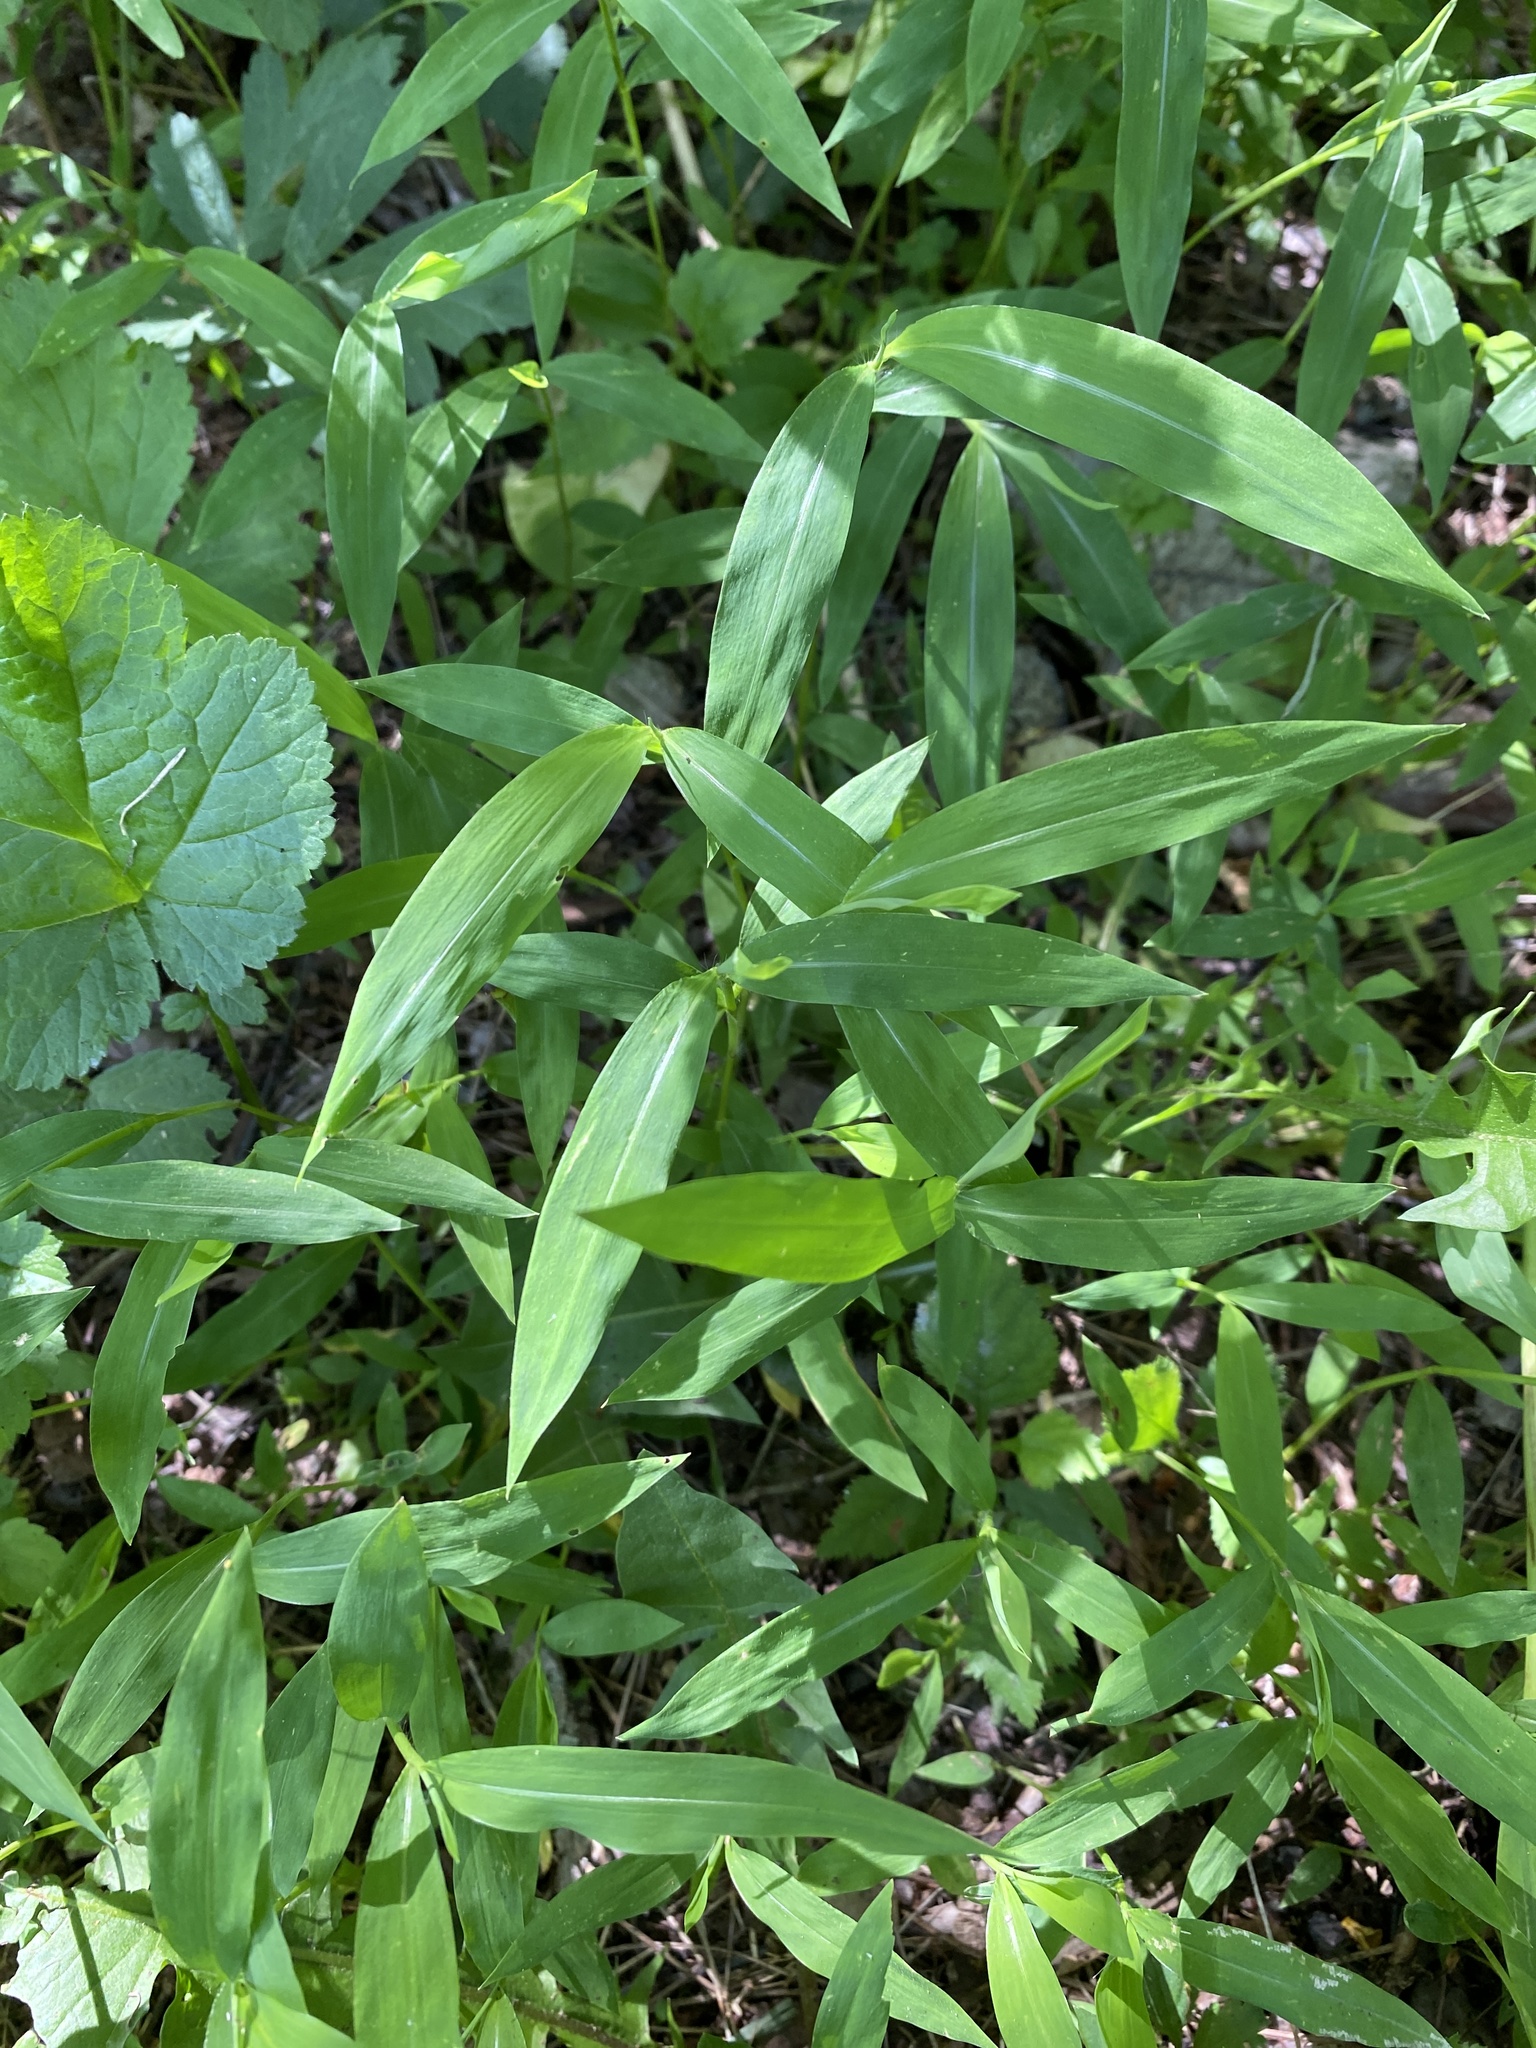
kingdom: Plantae
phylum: Tracheophyta
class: Liliopsida
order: Poales
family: Poaceae
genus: Microstegium
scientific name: Microstegium vimineum
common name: Japanese stiltgrass
